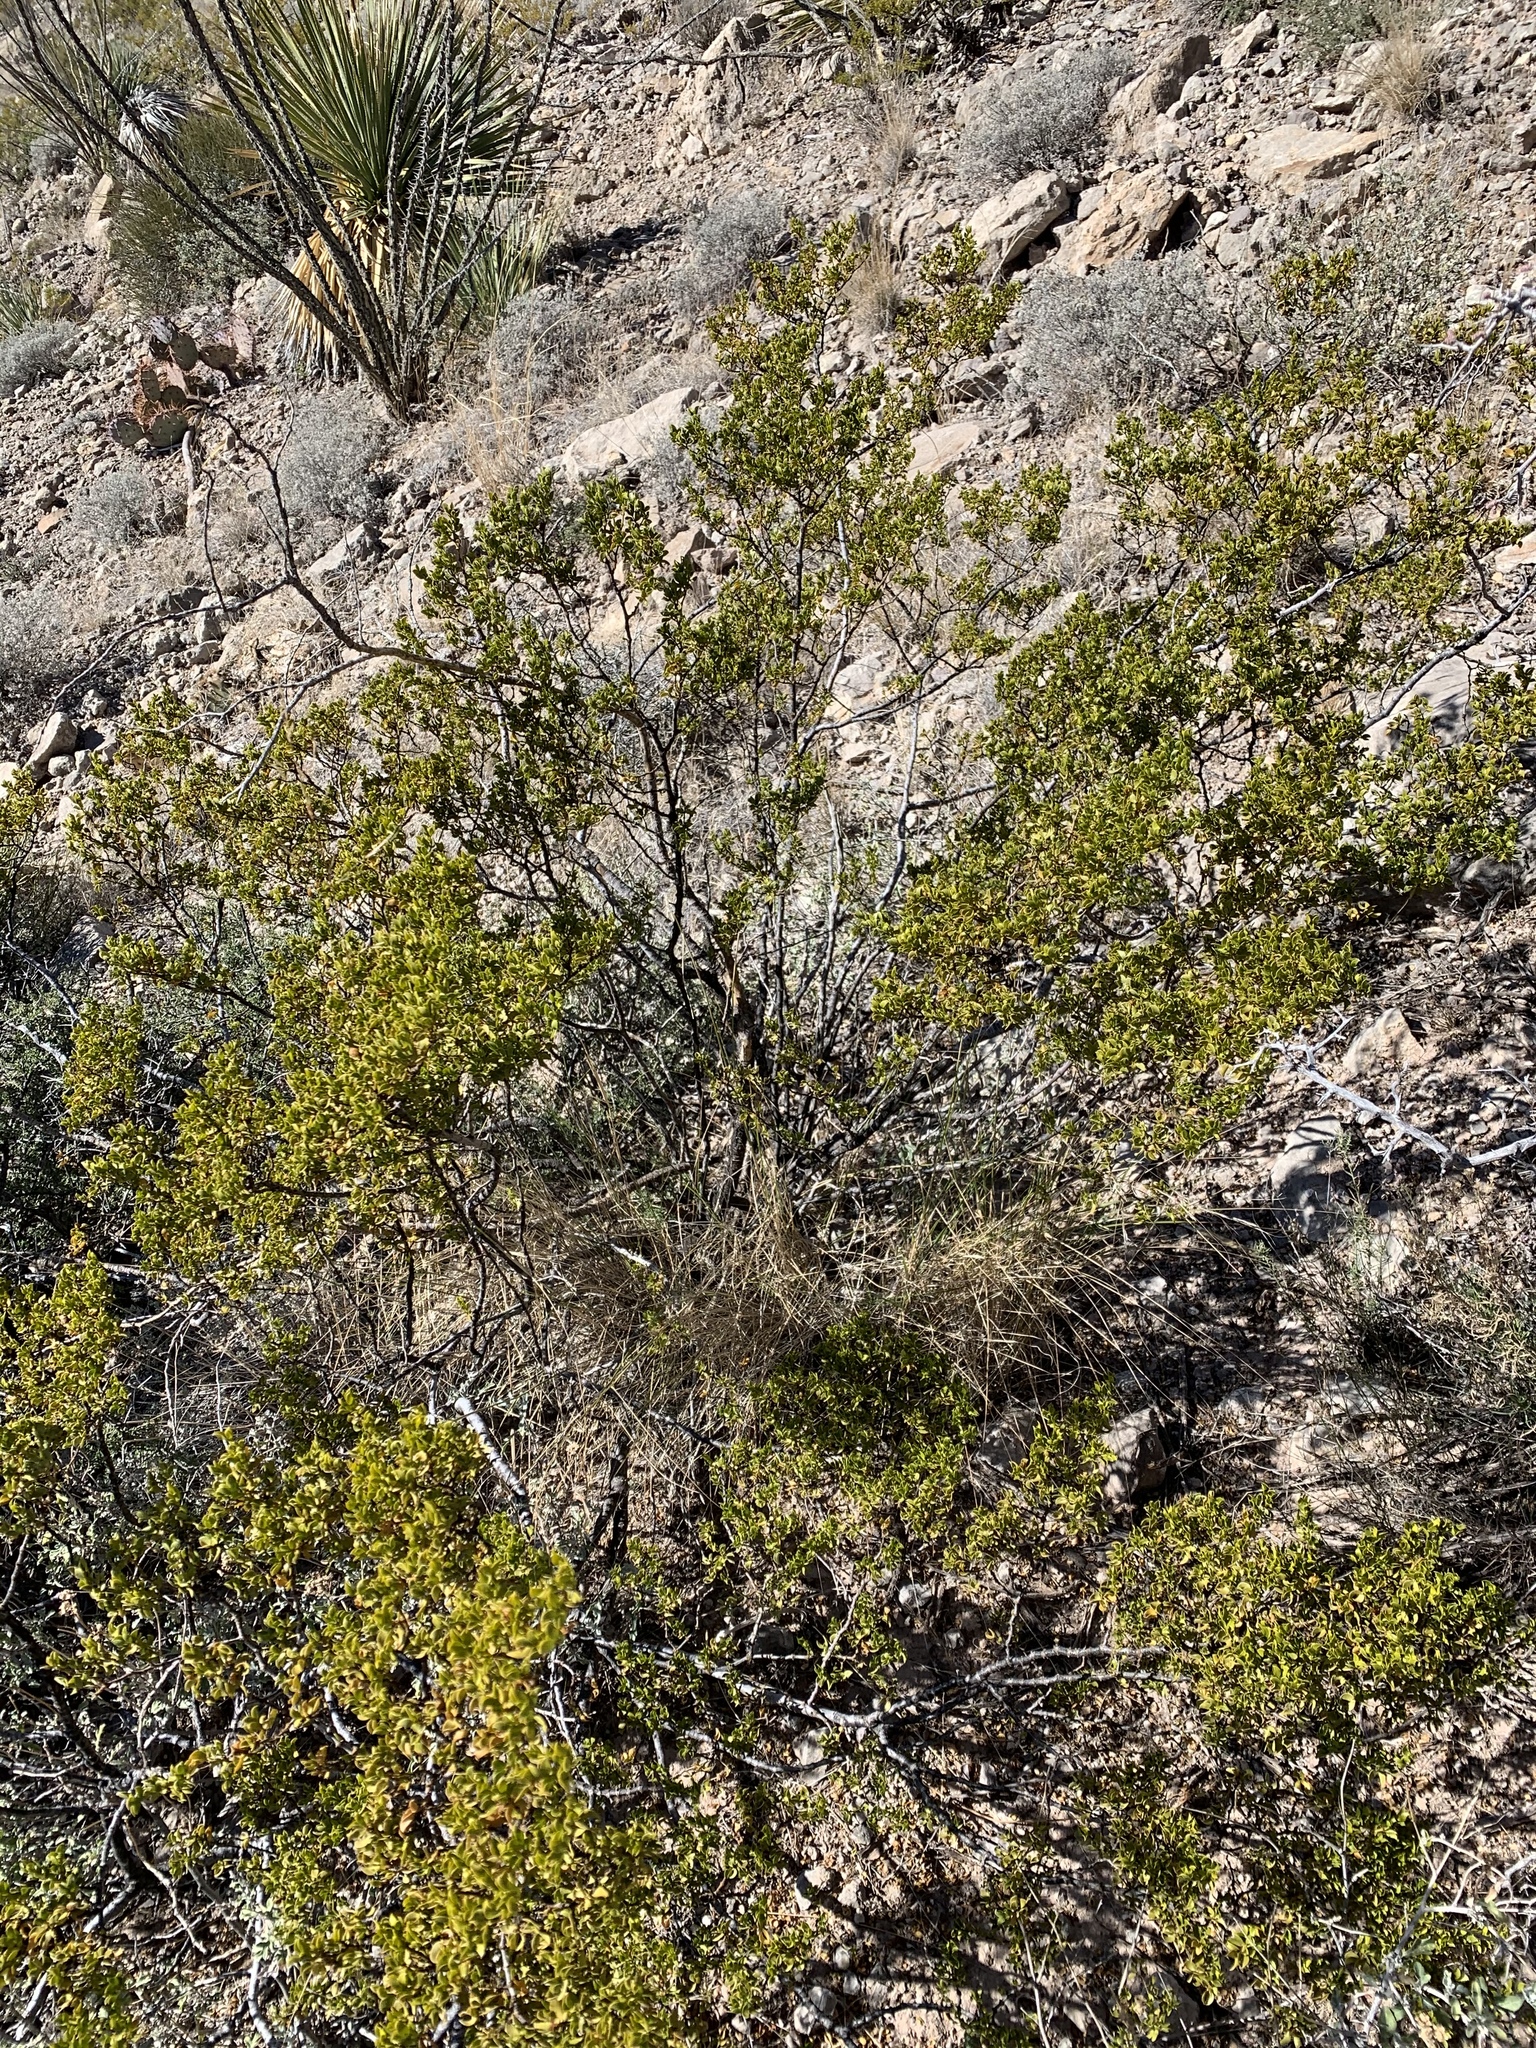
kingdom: Plantae
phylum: Tracheophyta
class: Magnoliopsida
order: Zygophyllales
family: Zygophyllaceae
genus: Larrea
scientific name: Larrea tridentata
